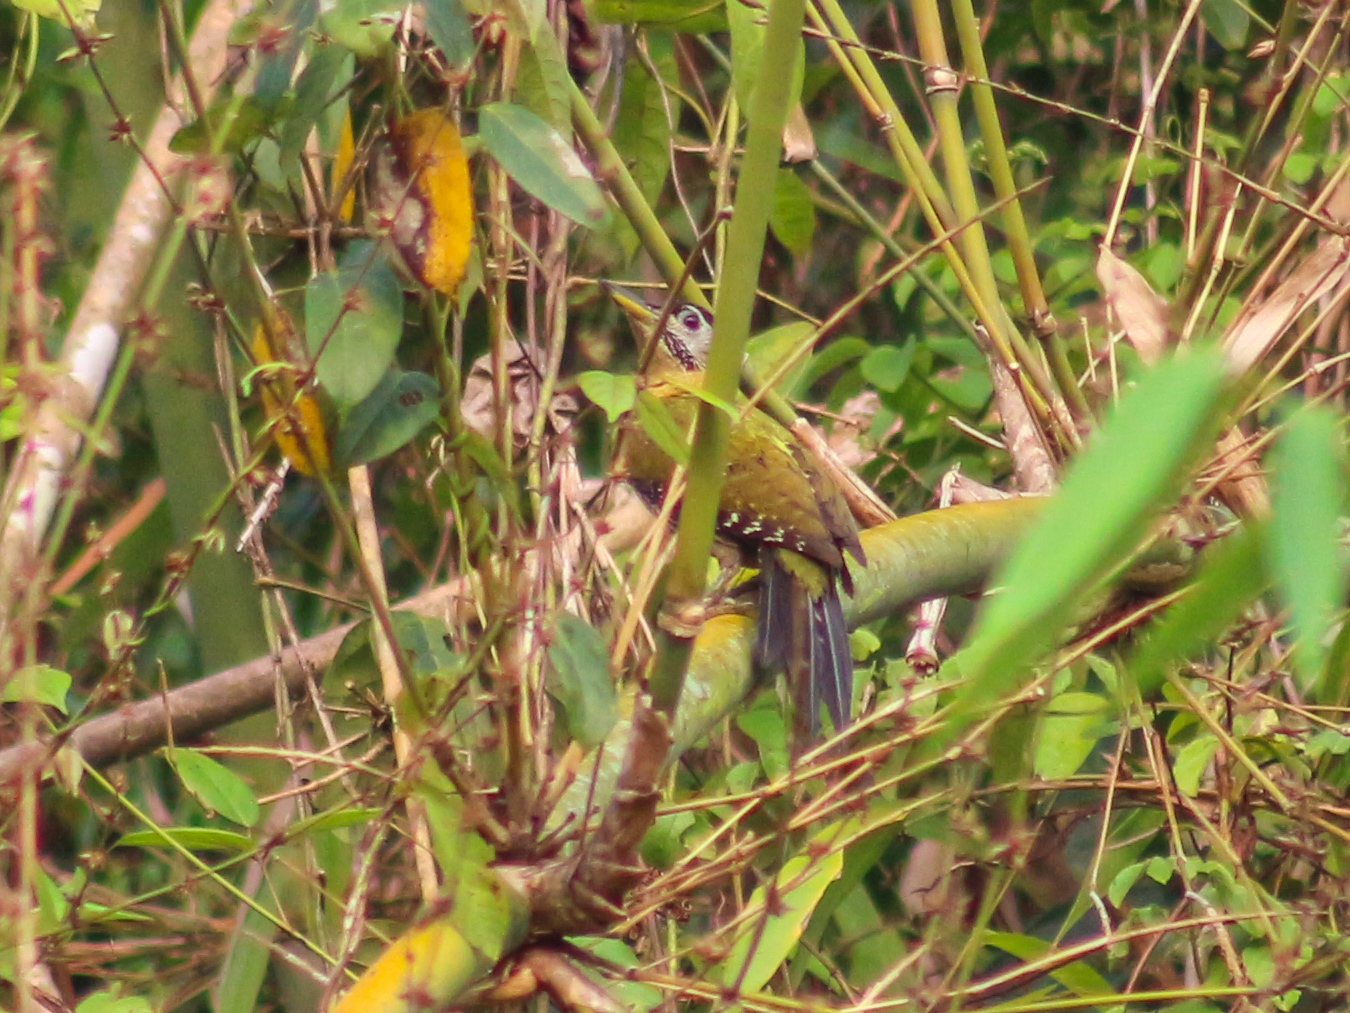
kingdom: Animalia
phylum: Chordata
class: Aves
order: Piciformes
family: Picidae
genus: Picus
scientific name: Picus vittatus
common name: Laced woodpecker
